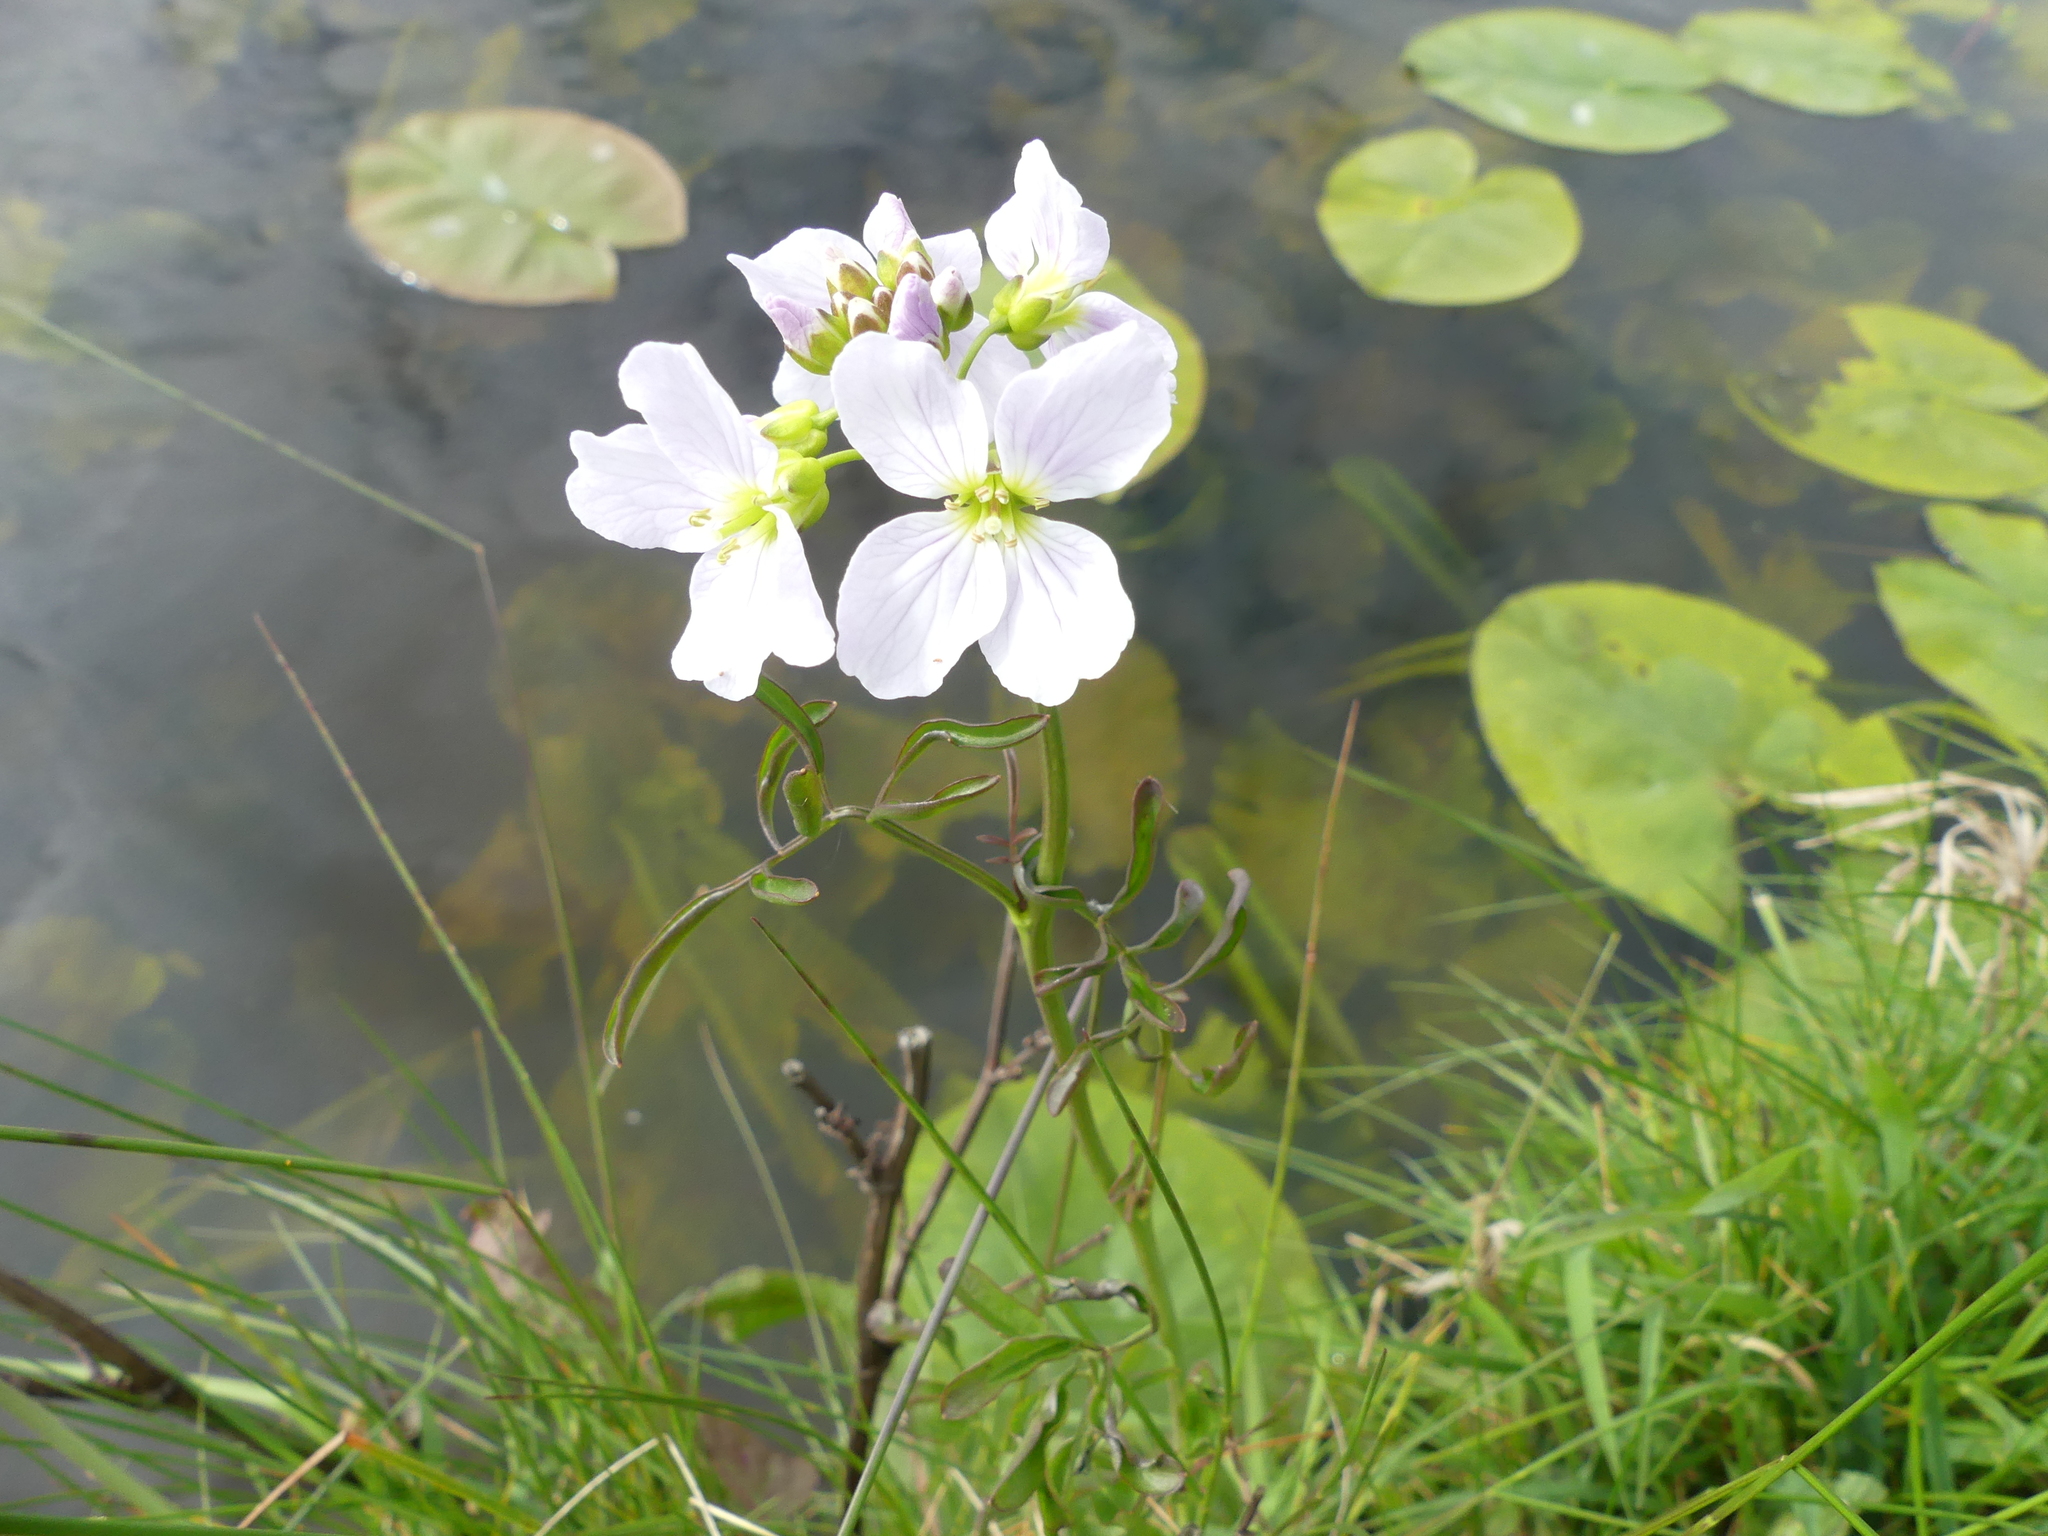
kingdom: Plantae
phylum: Tracheophyta
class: Magnoliopsida
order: Brassicales
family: Brassicaceae
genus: Cardamine
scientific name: Cardamine pratensis
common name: Cuckoo flower
